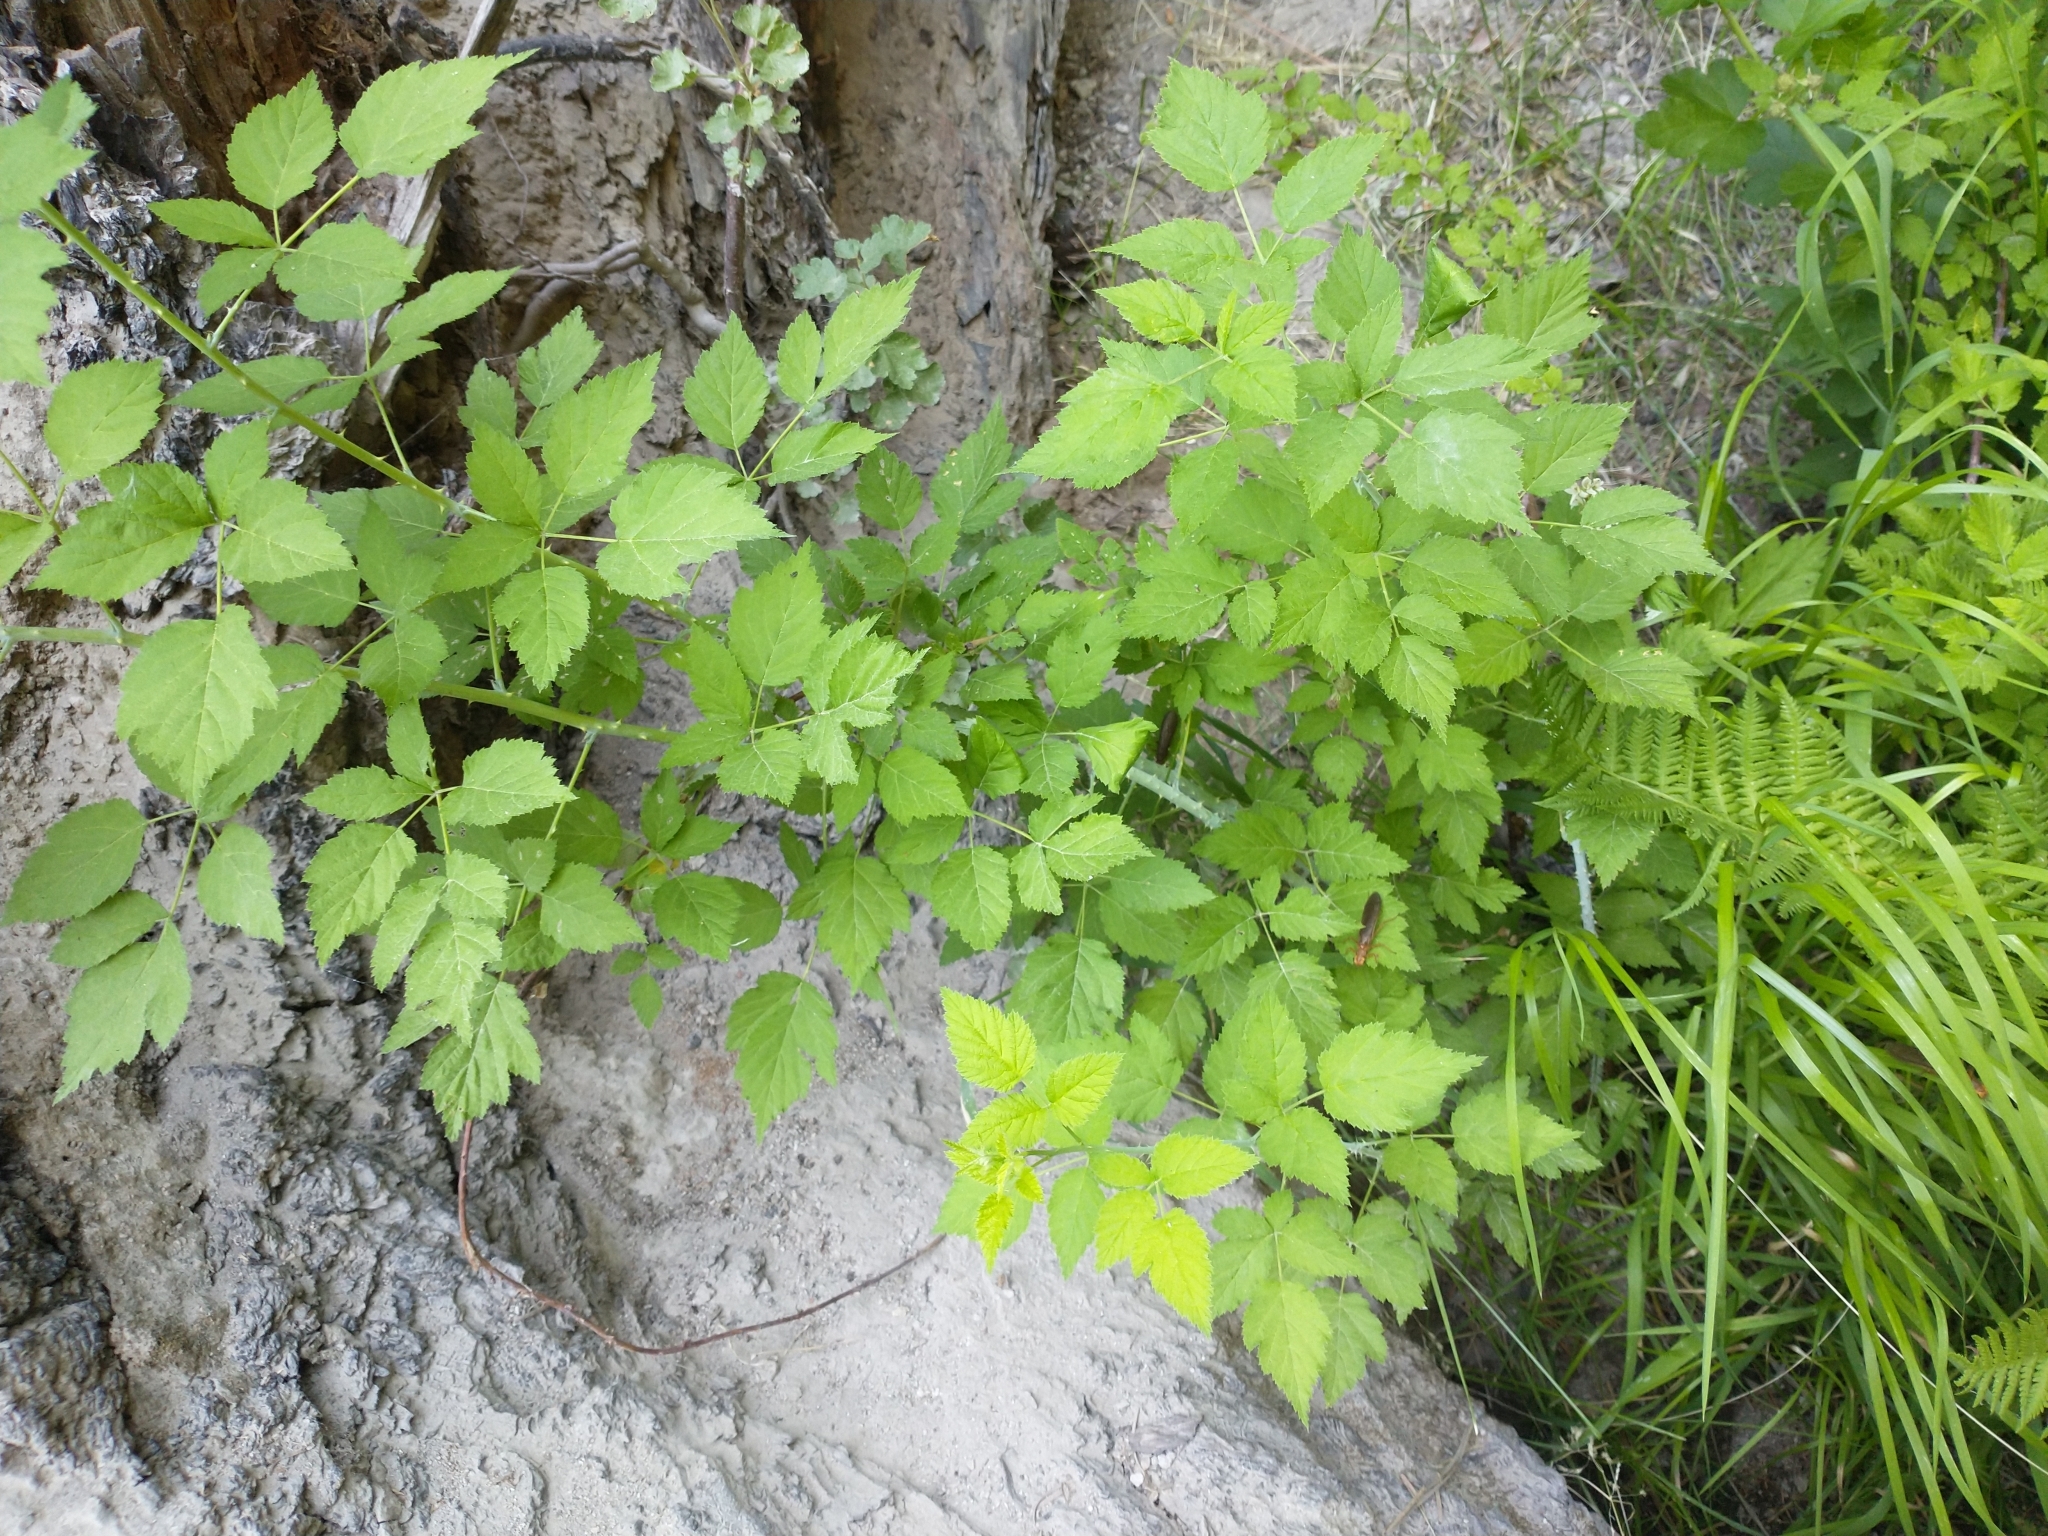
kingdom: Plantae
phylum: Tracheophyta
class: Magnoliopsida
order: Rosales
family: Rosaceae
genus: Rubus
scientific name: Rubus leucodermis
